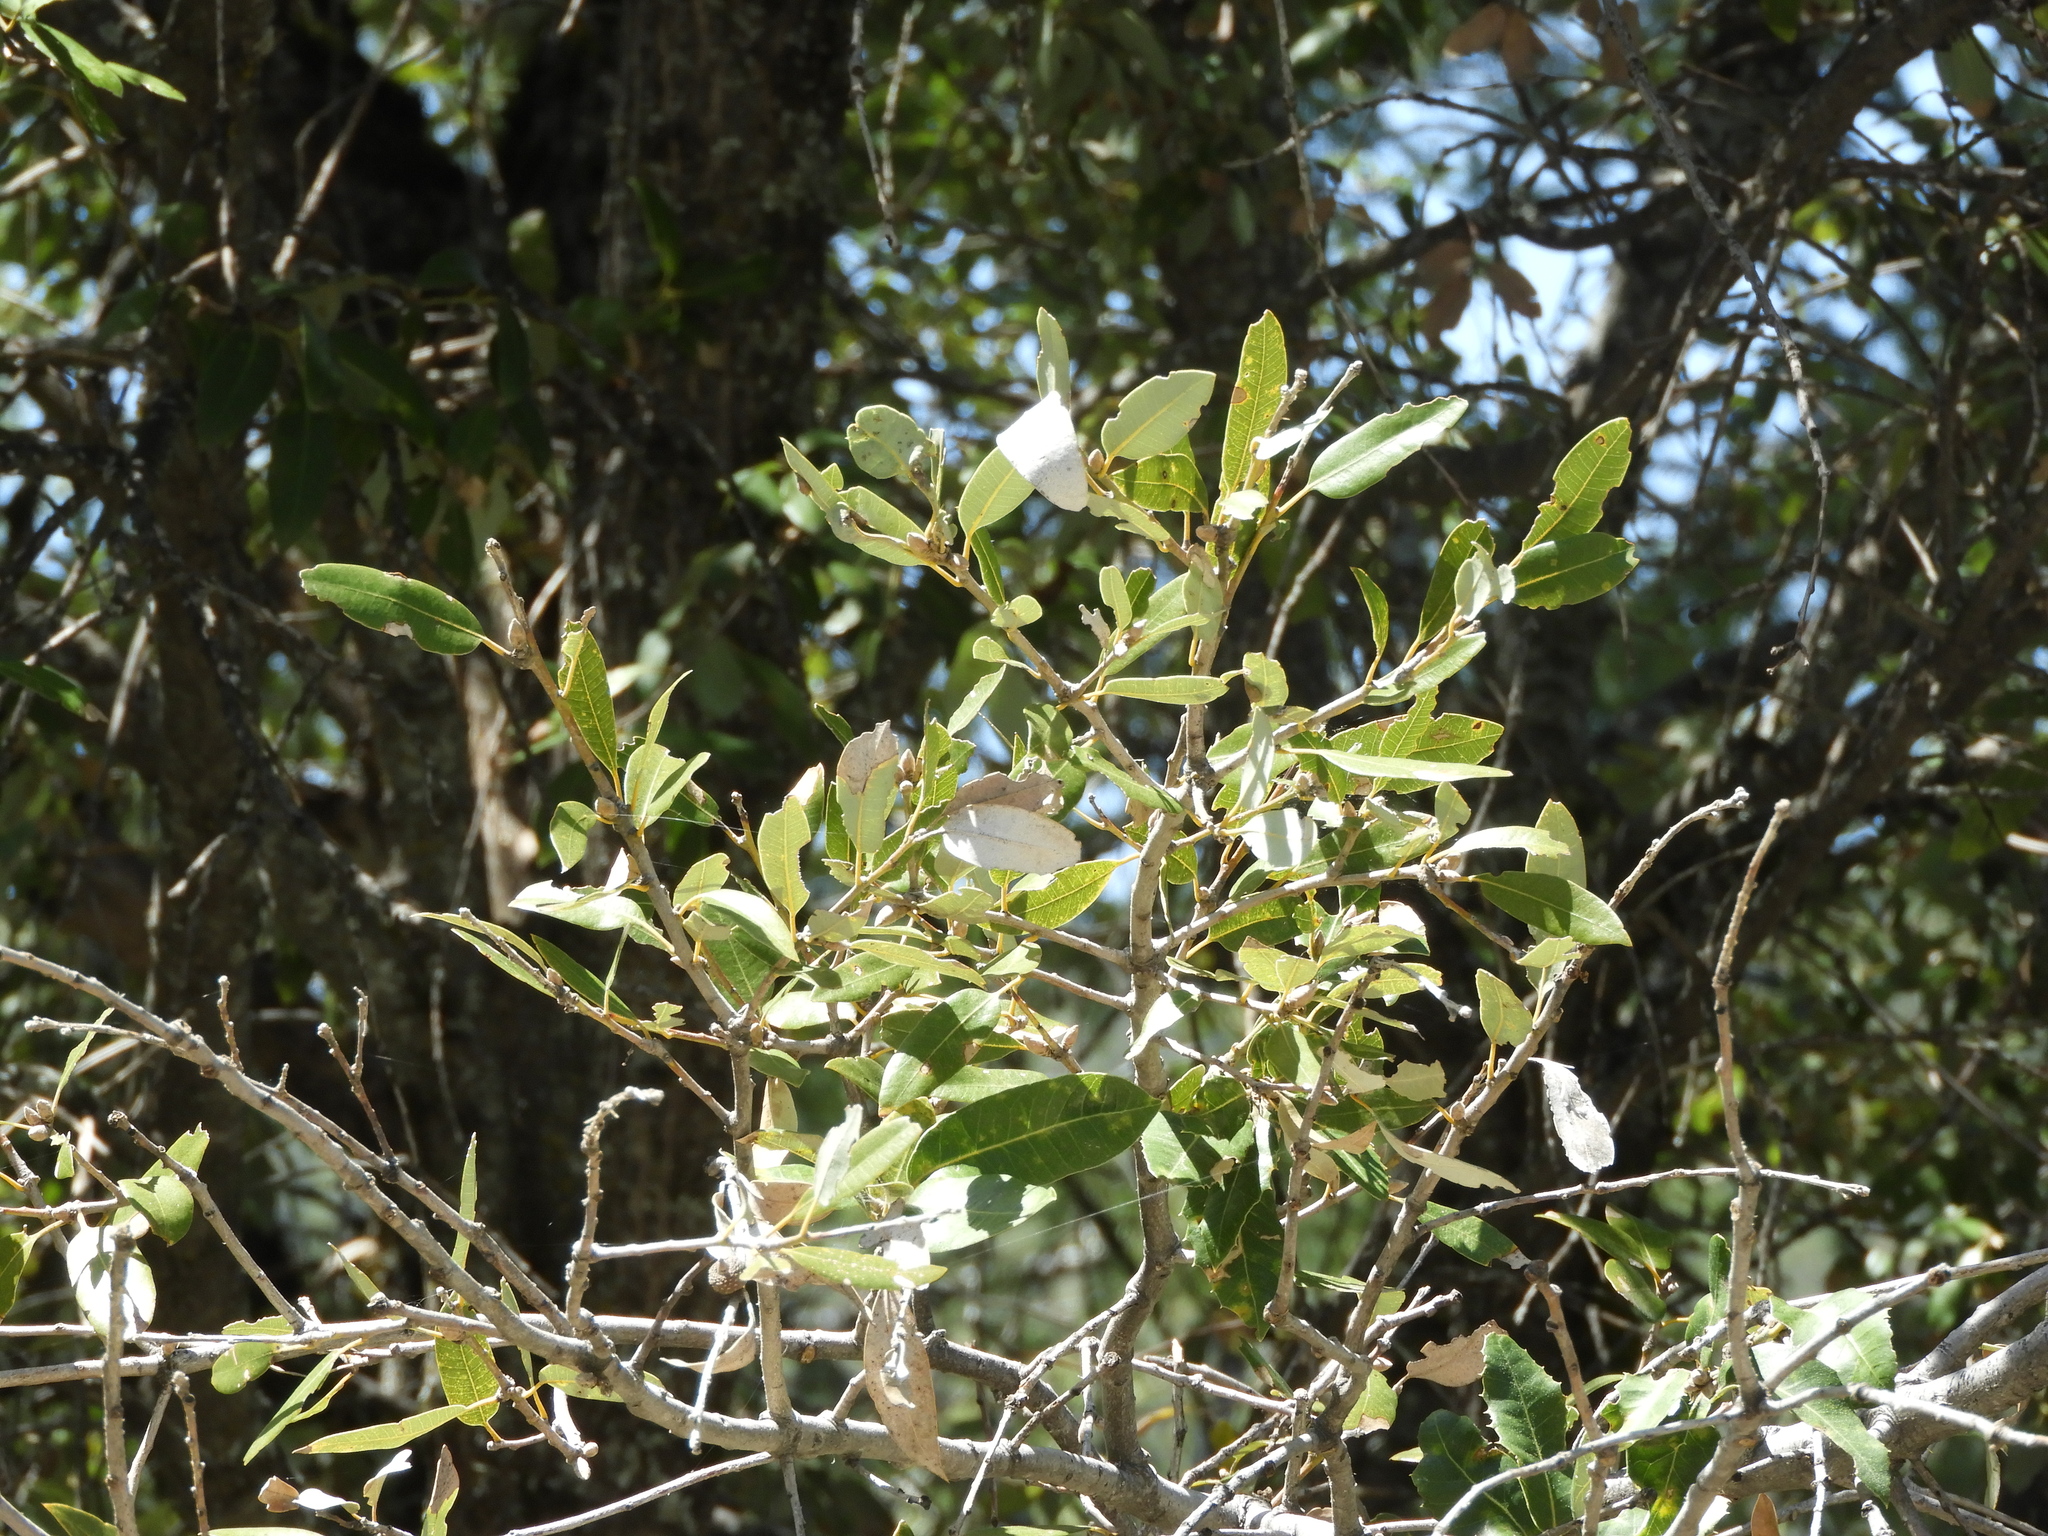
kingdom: Plantae
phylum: Tracheophyta
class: Magnoliopsida
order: Fagales
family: Fagaceae
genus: Quercus
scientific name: Quercus chrysolepis
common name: Canyon live oak
